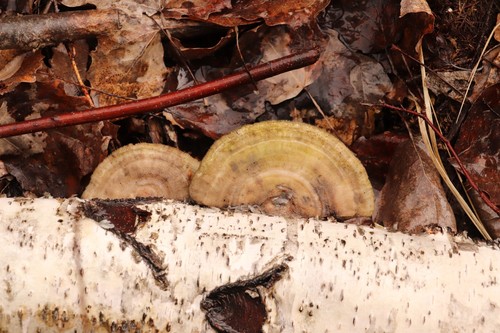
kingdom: Fungi
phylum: Basidiomycota
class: Agaricomycetes
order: Polyporales
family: Polyporaceae
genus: Lenzites
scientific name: Lenzites betulinus
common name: Birch mazegill
